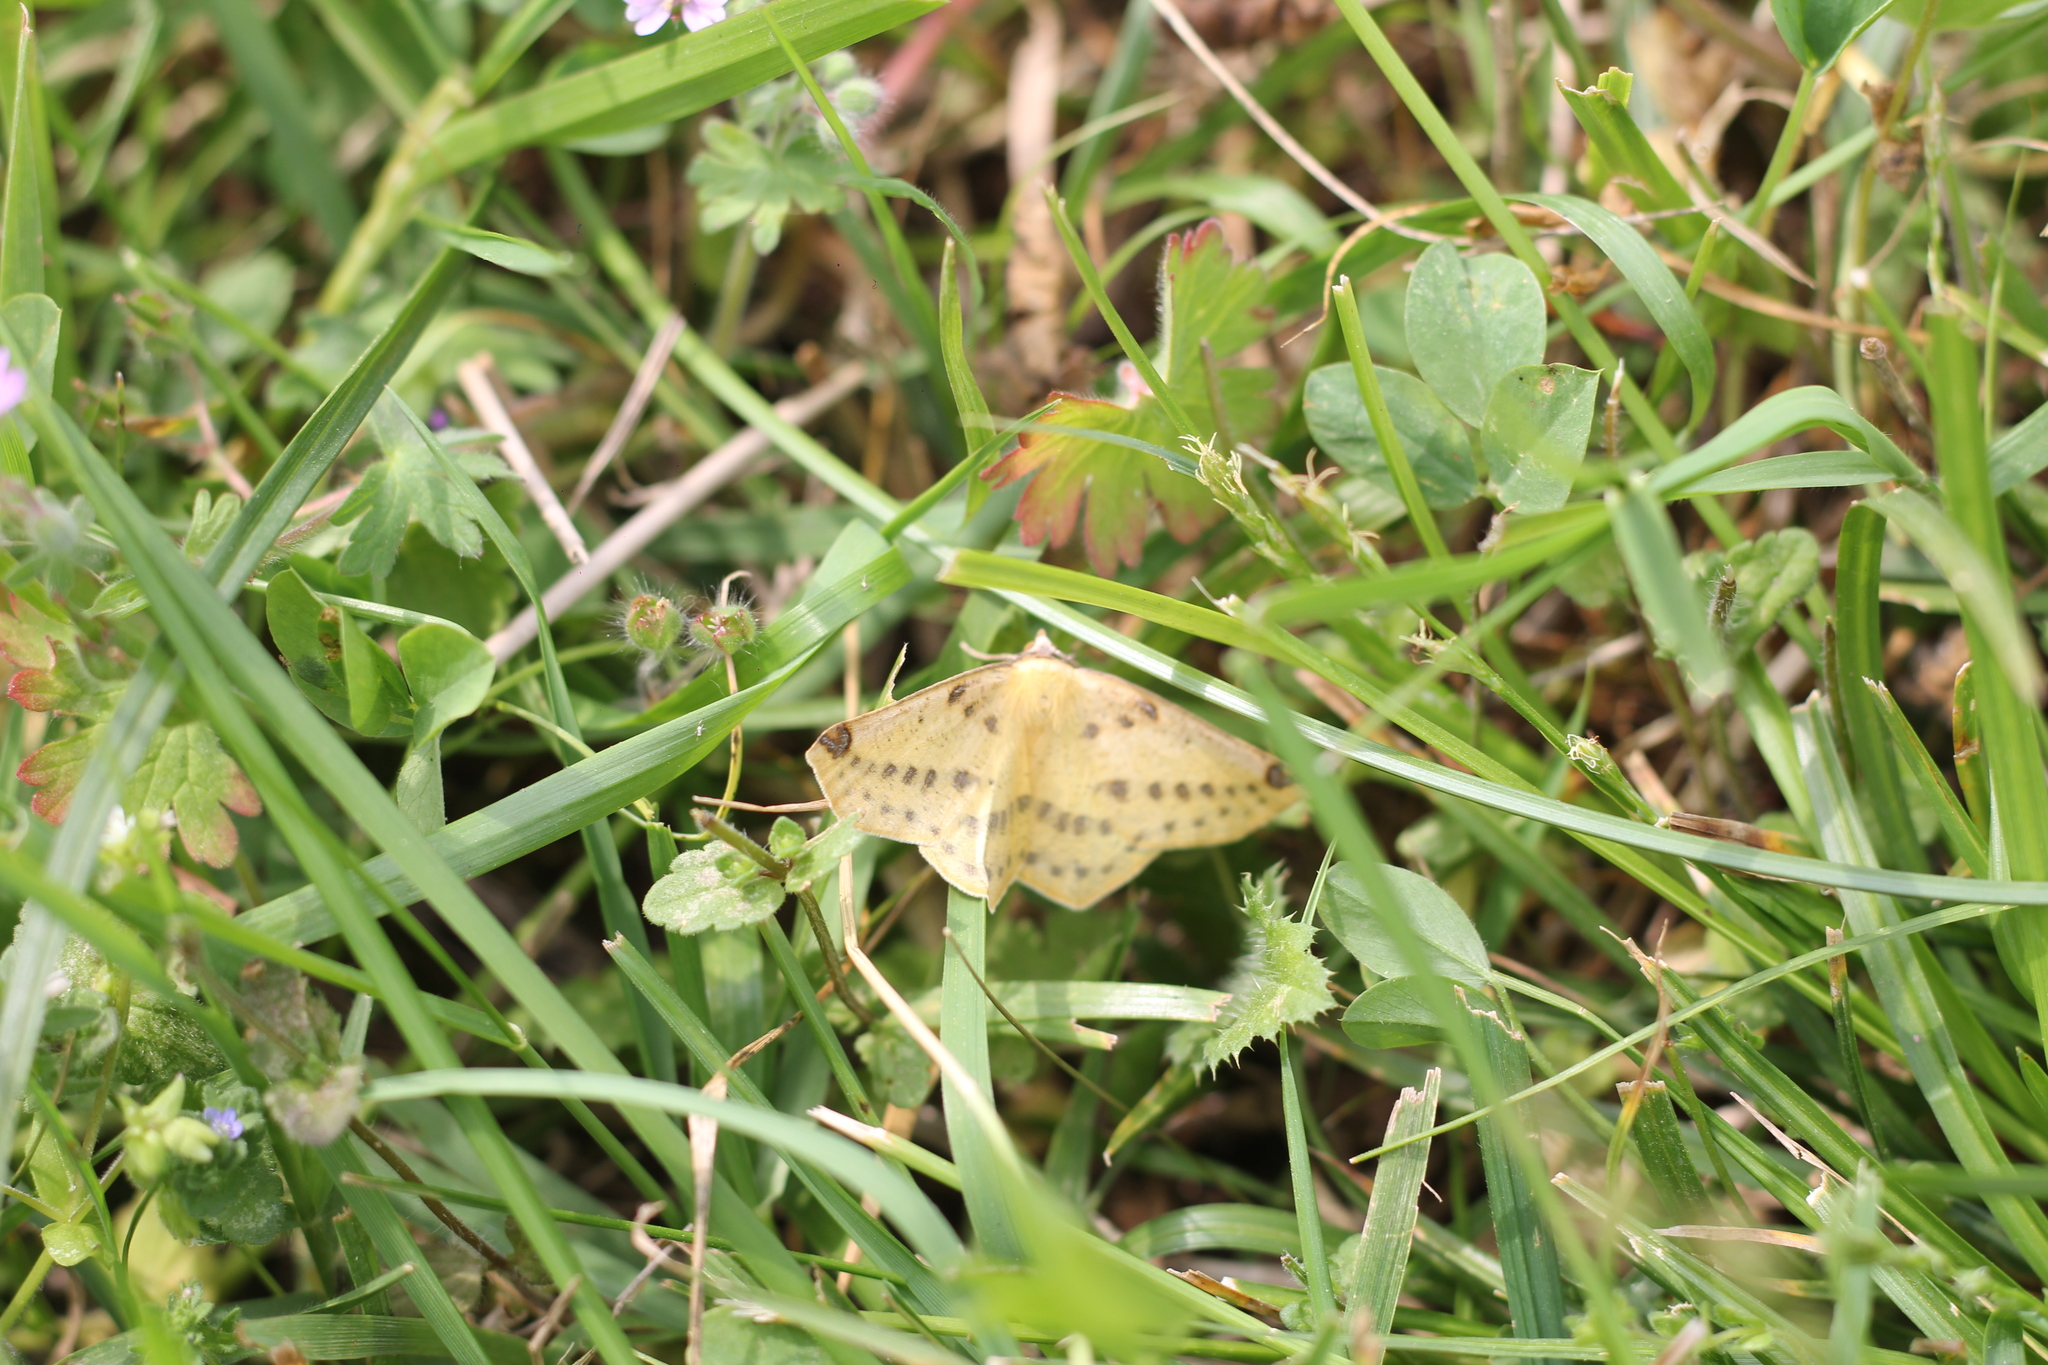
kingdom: Animalia
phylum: Arthropoda
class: Insecta
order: Lepidoptera
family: Geometridae
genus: Microsema
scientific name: Microsema gladiaria
